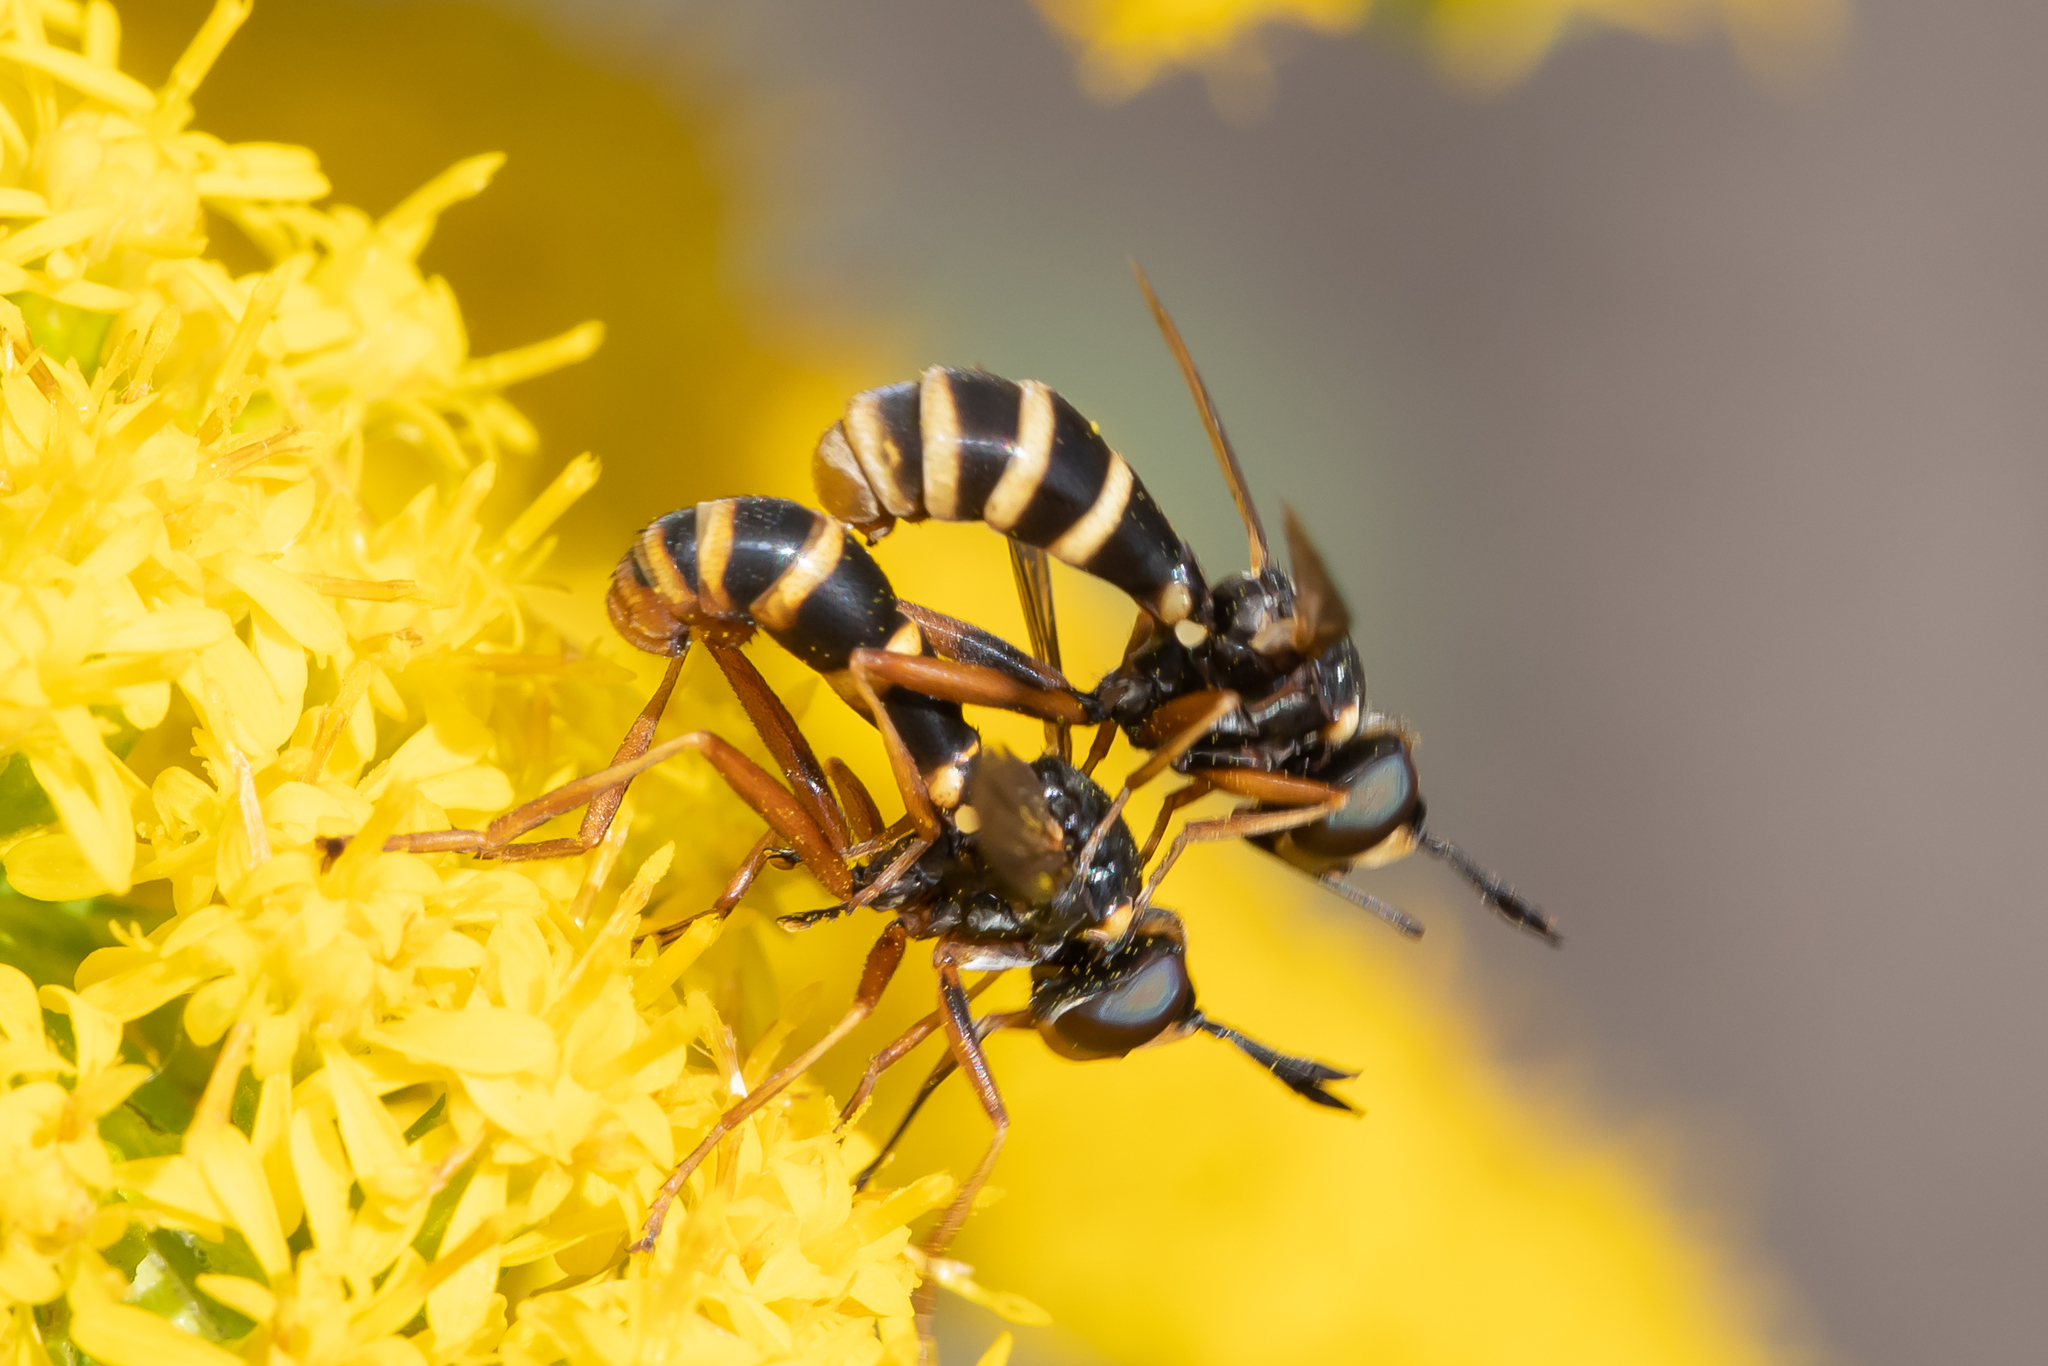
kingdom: Animalia
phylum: Arthropoda
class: Insecta
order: Diptera
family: Conopidae
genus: Conops
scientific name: Conops quadrifasciatus
